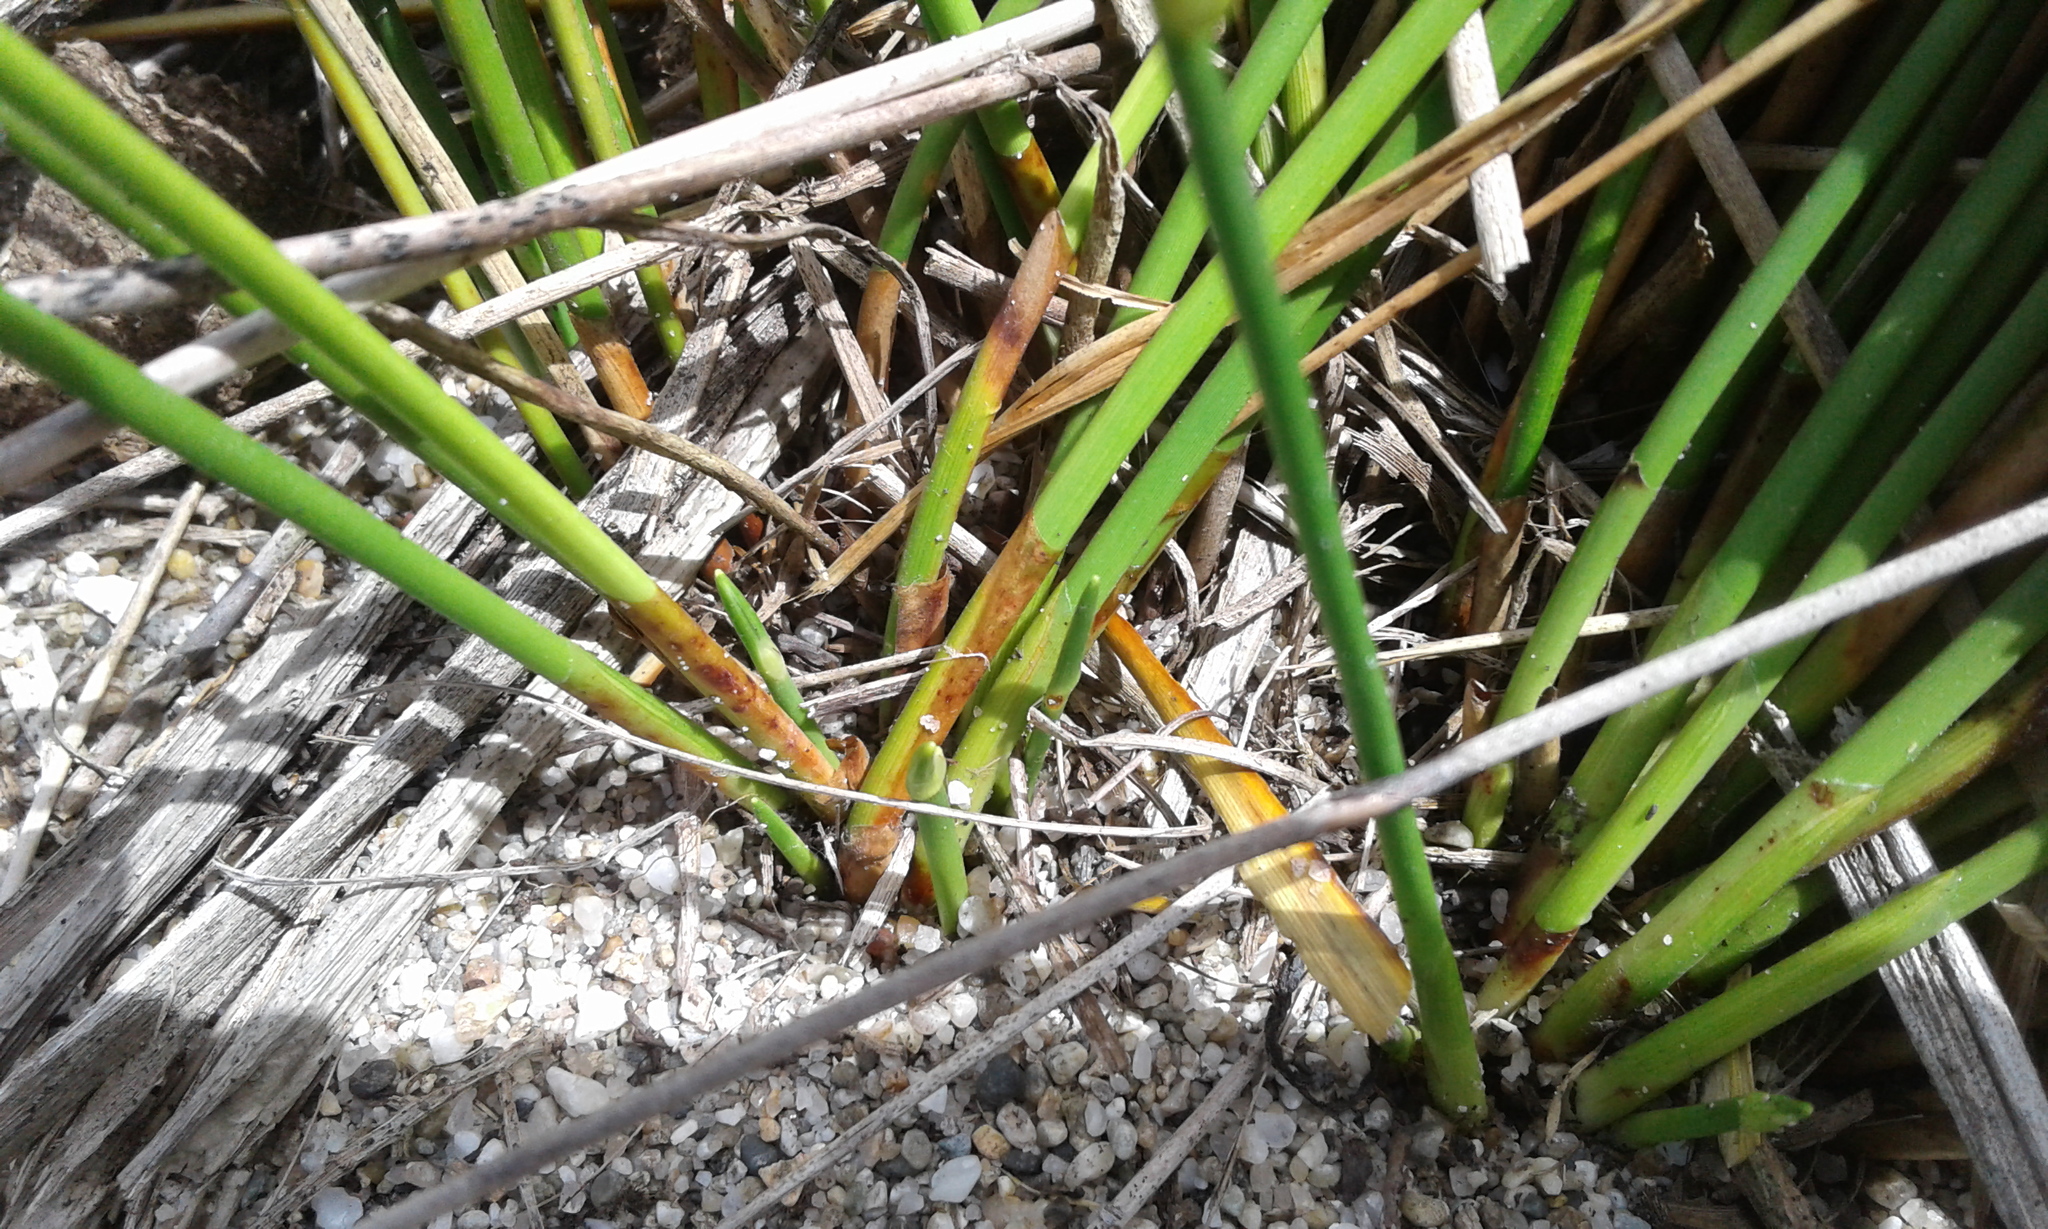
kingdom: Plantae
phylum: Tracheophyta
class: Liliopsida
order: Poales
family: Cyperaceae
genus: Ficinia
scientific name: Ficinia nodosa
